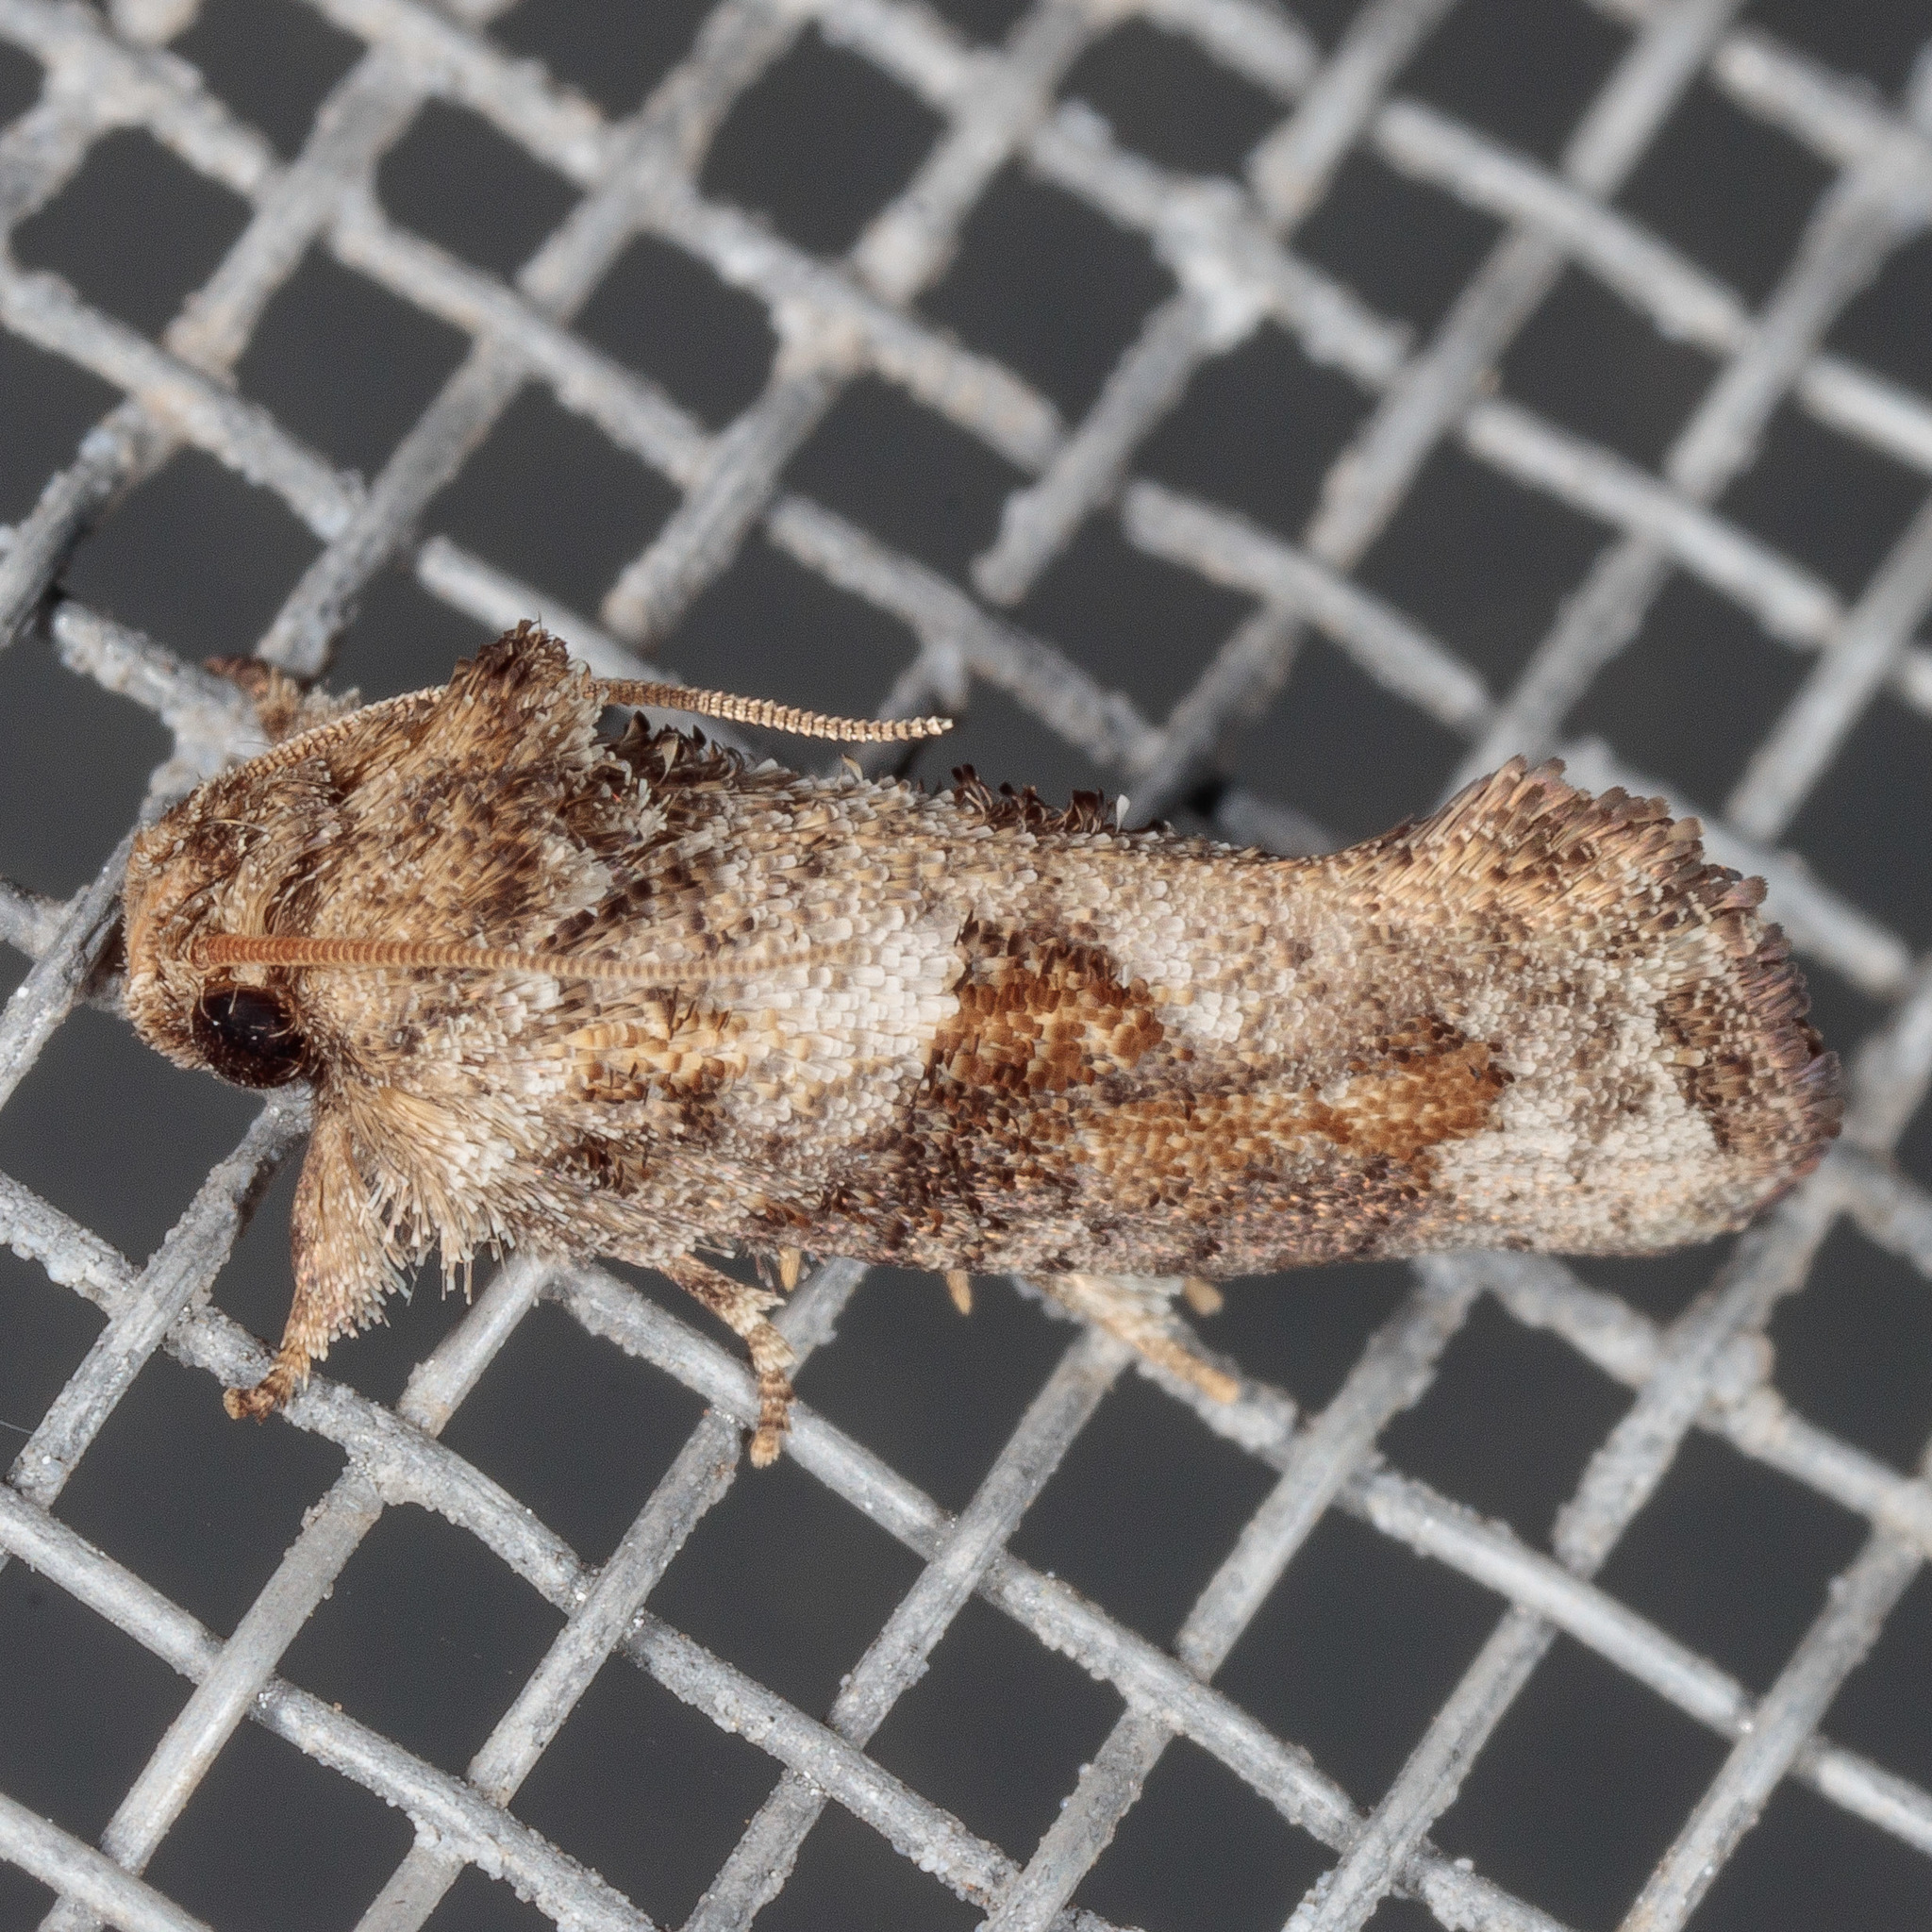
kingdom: Animalia
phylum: Arthropoda
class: Insecta
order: Lepidoptera
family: Tineidae
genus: Acrolophus
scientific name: Acrolophus piger
